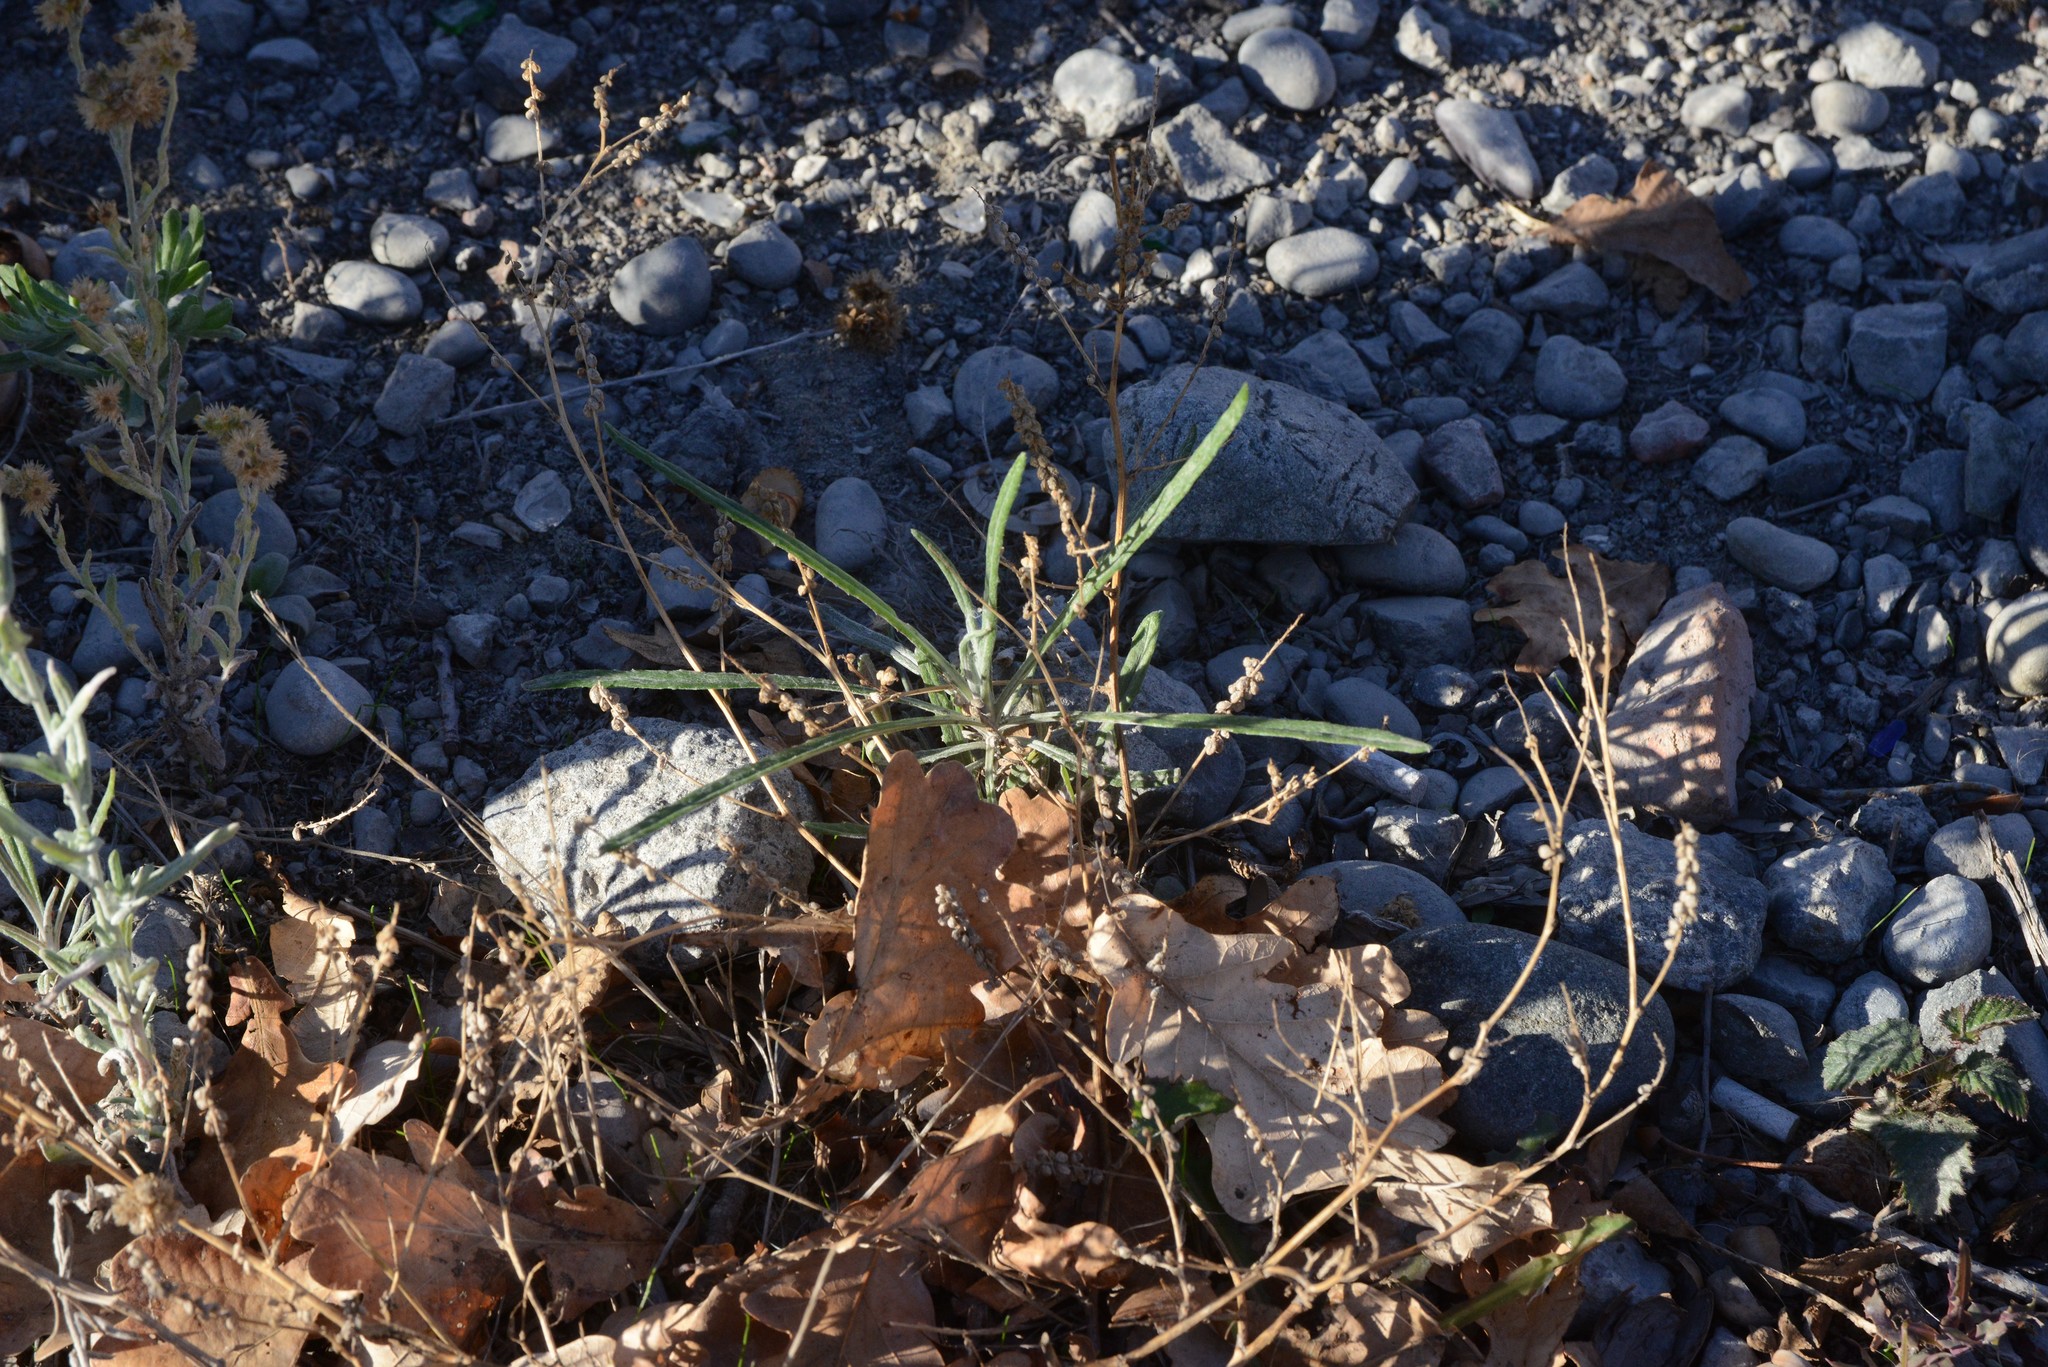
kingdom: Plantae
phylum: Tracheophyta
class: Magnoliopsida
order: Asterales
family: Asteraceae
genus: Senecio
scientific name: Senecio quadridentatus
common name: Cotton fireweed
